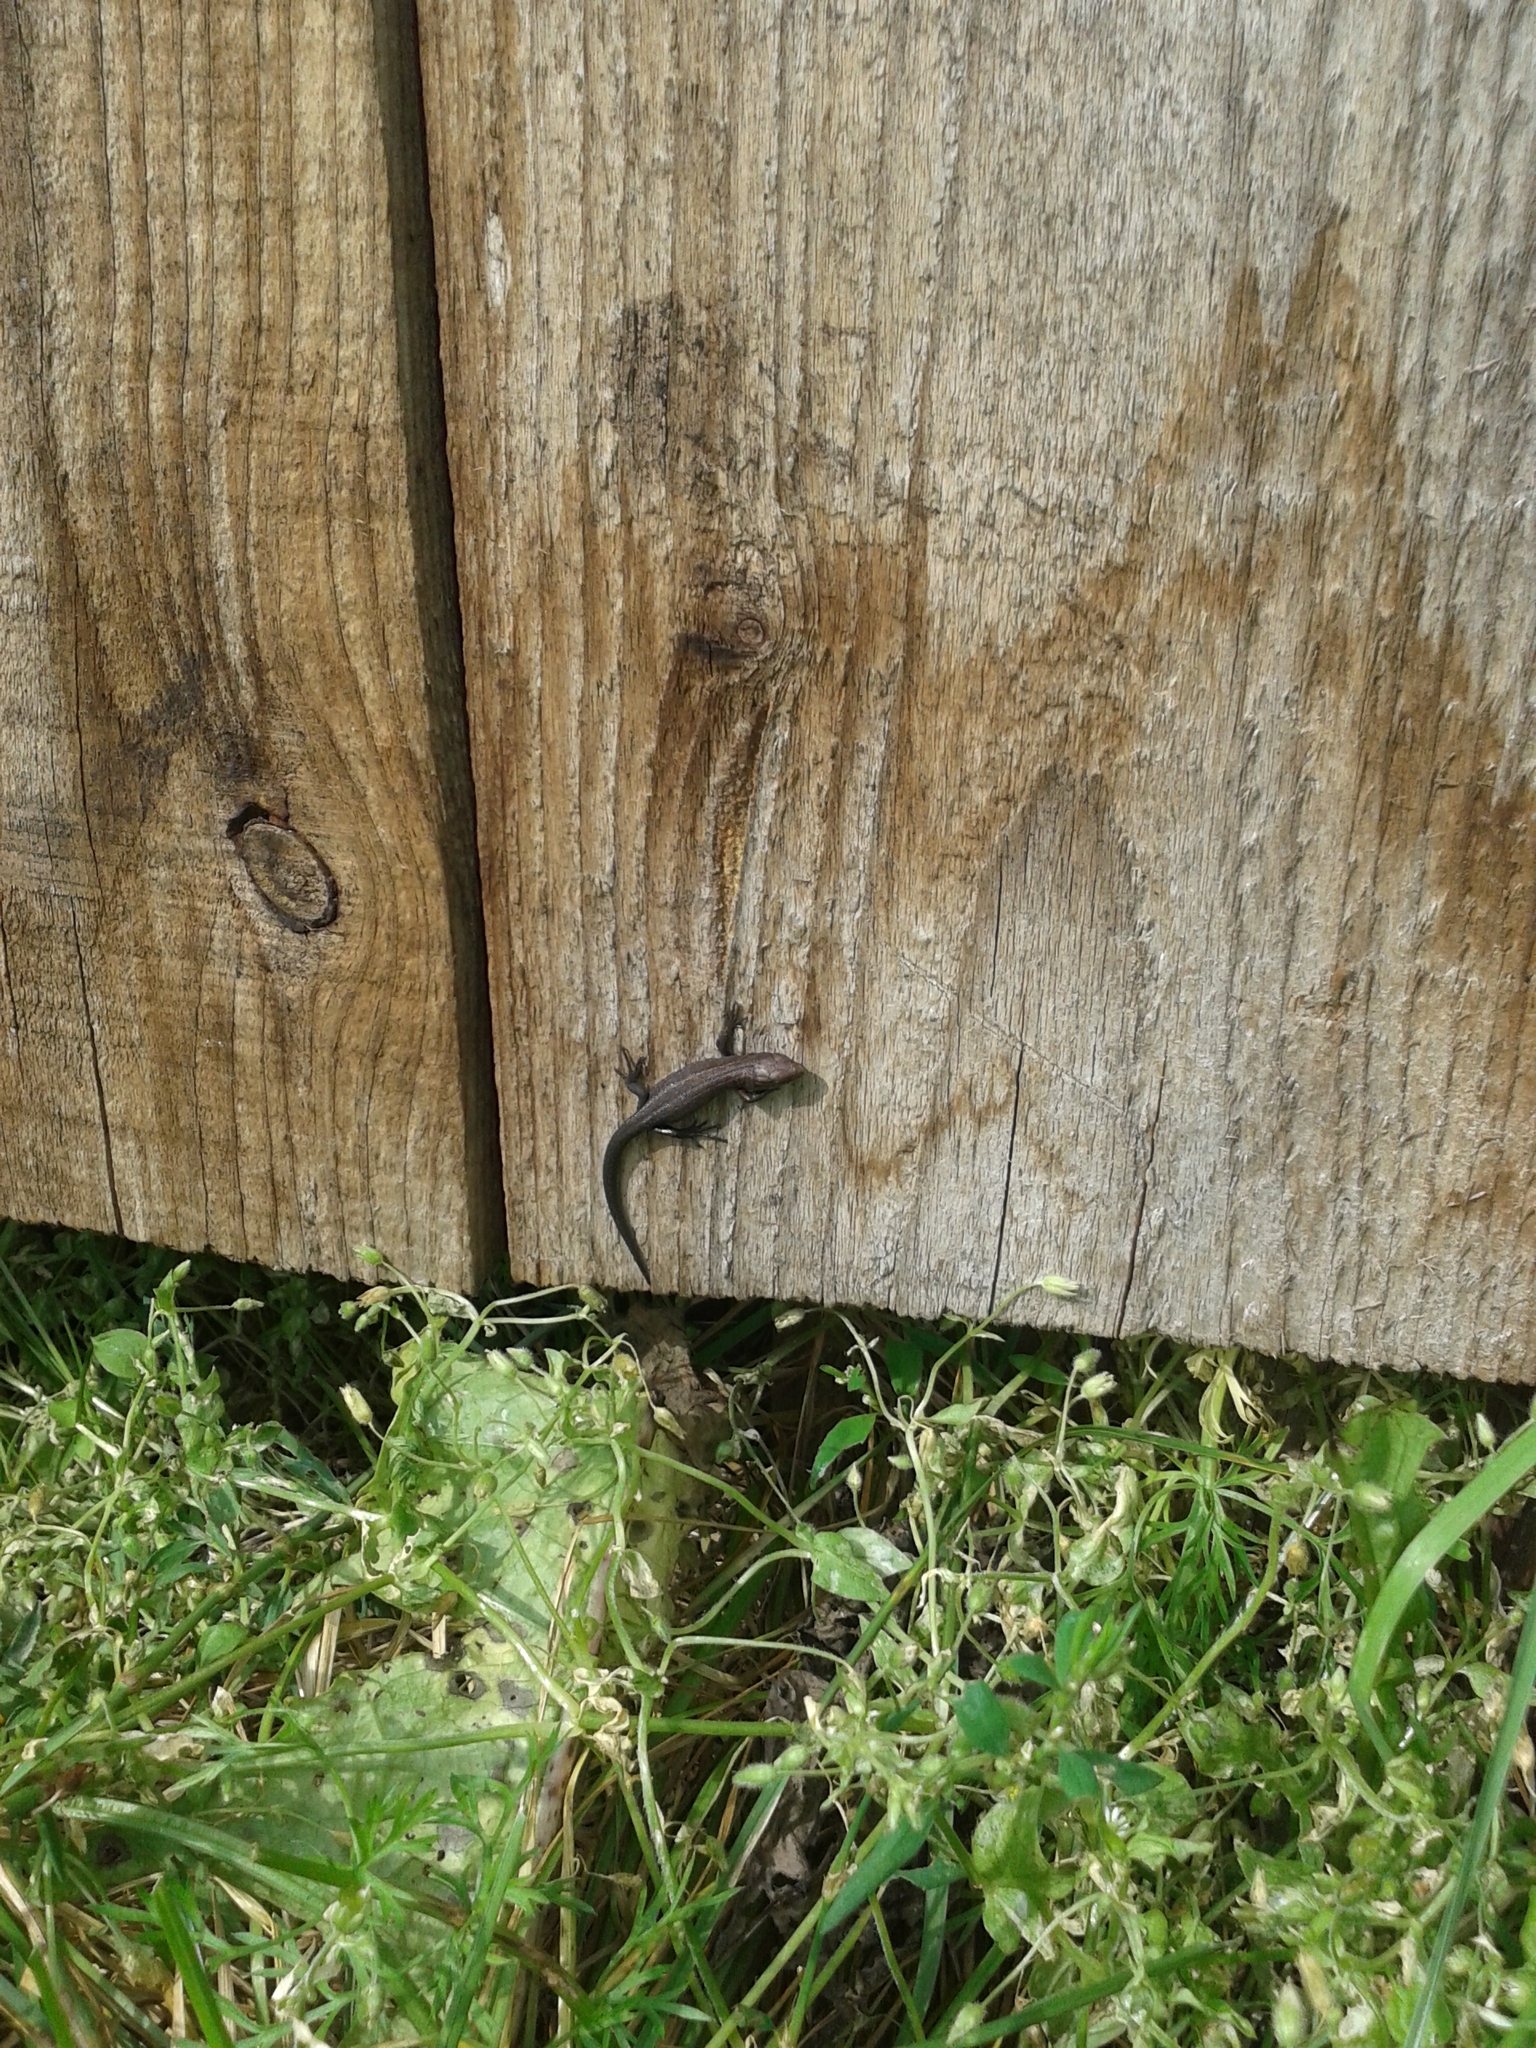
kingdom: Animalia
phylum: Chordata
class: Squamata
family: Lacertidae
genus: Zootoca
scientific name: Zootoca vivipara
